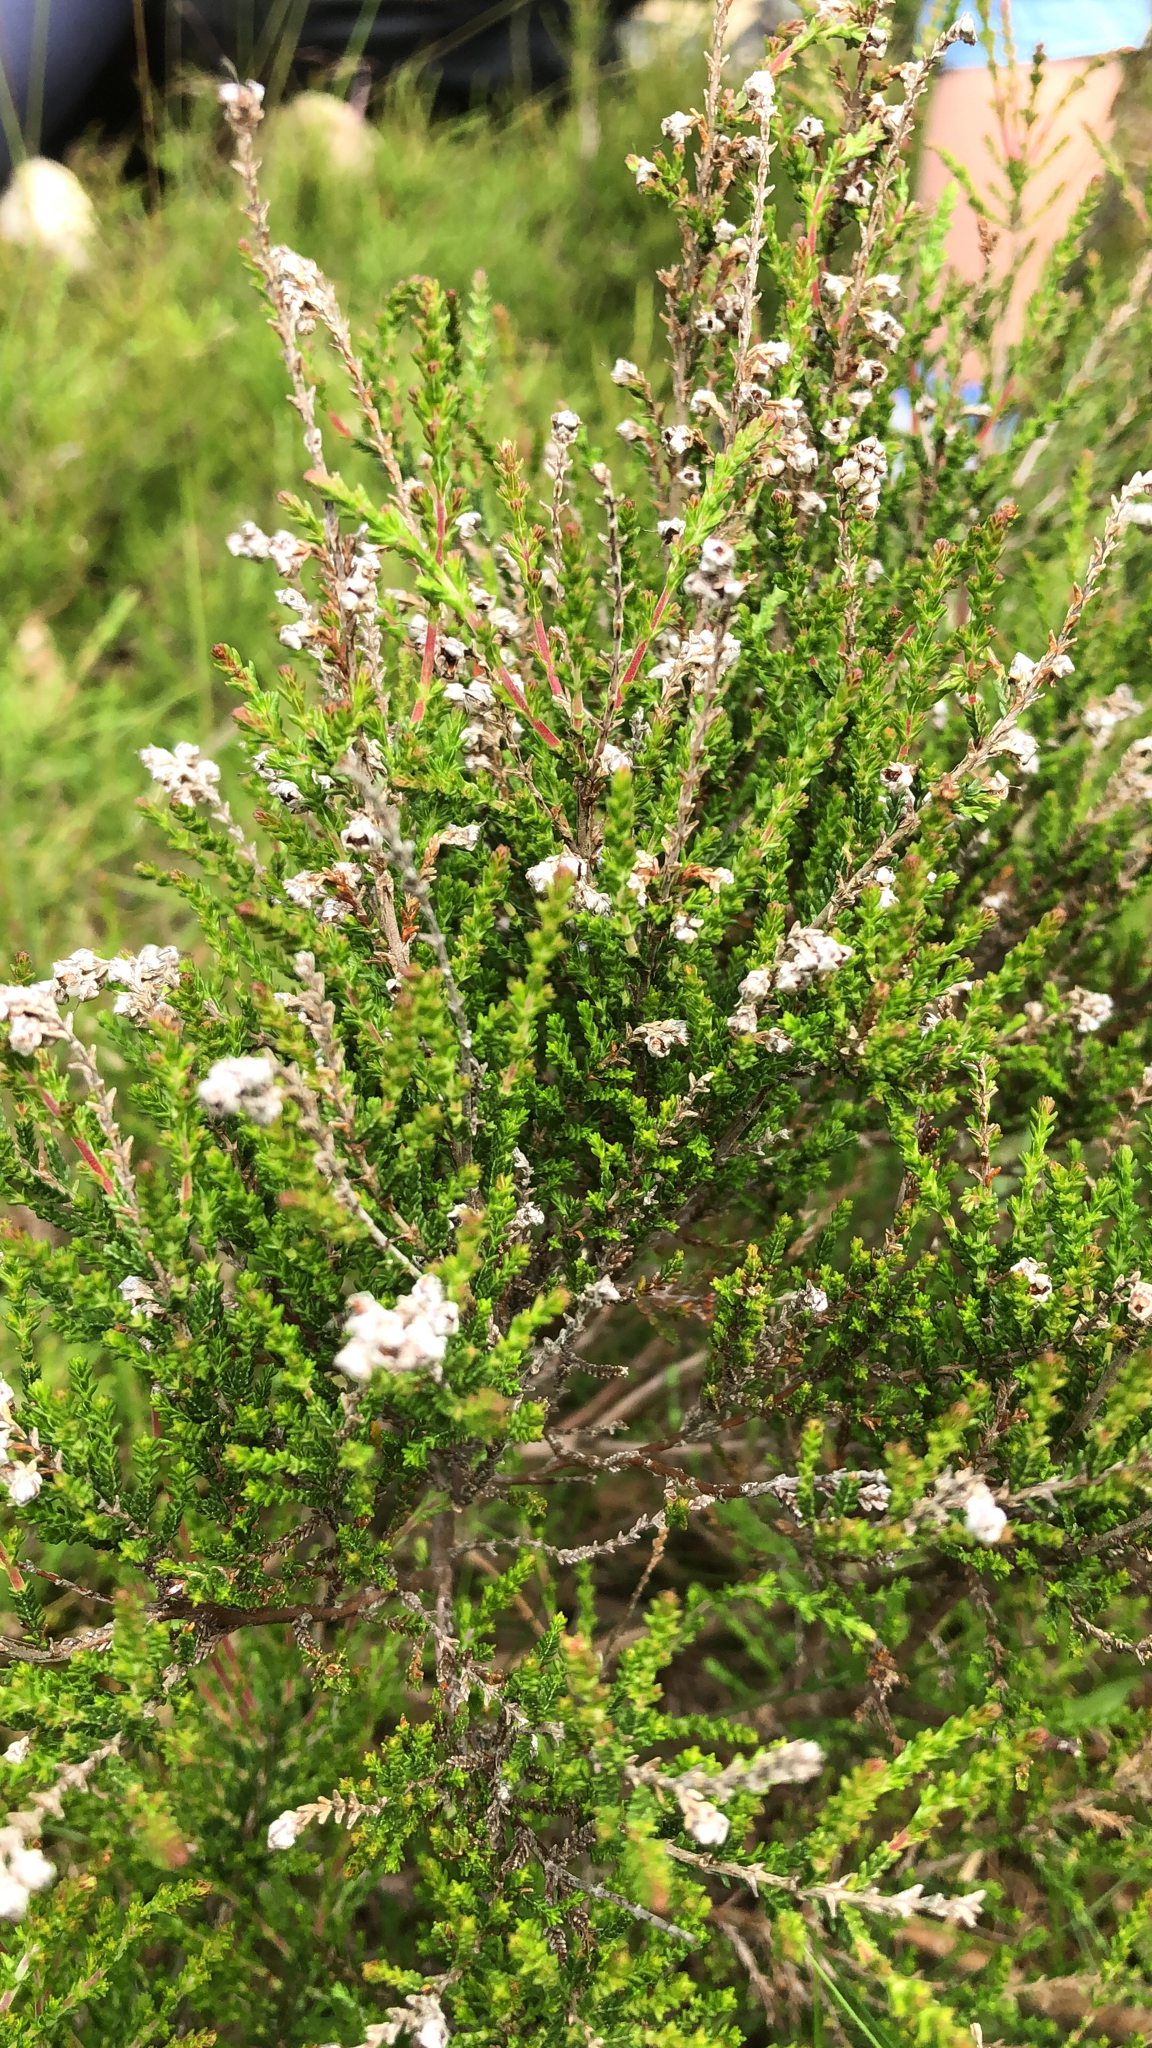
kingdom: Plantae
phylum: Tracheophyta
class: Magnoliopsida
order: Ericales
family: Ericaceae
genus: Calluna
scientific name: Calluna vulgaris
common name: Heather
